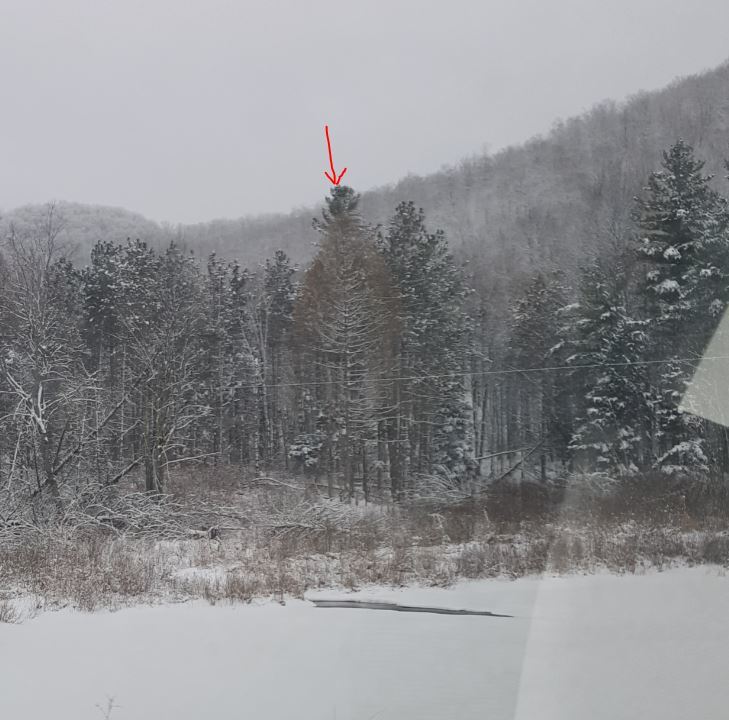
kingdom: Plantae
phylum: Tracheophyta
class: Pinopsida
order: Pinales
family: Pinaceae
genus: Pinus
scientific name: Pinus strobus
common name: Weymouth pine
